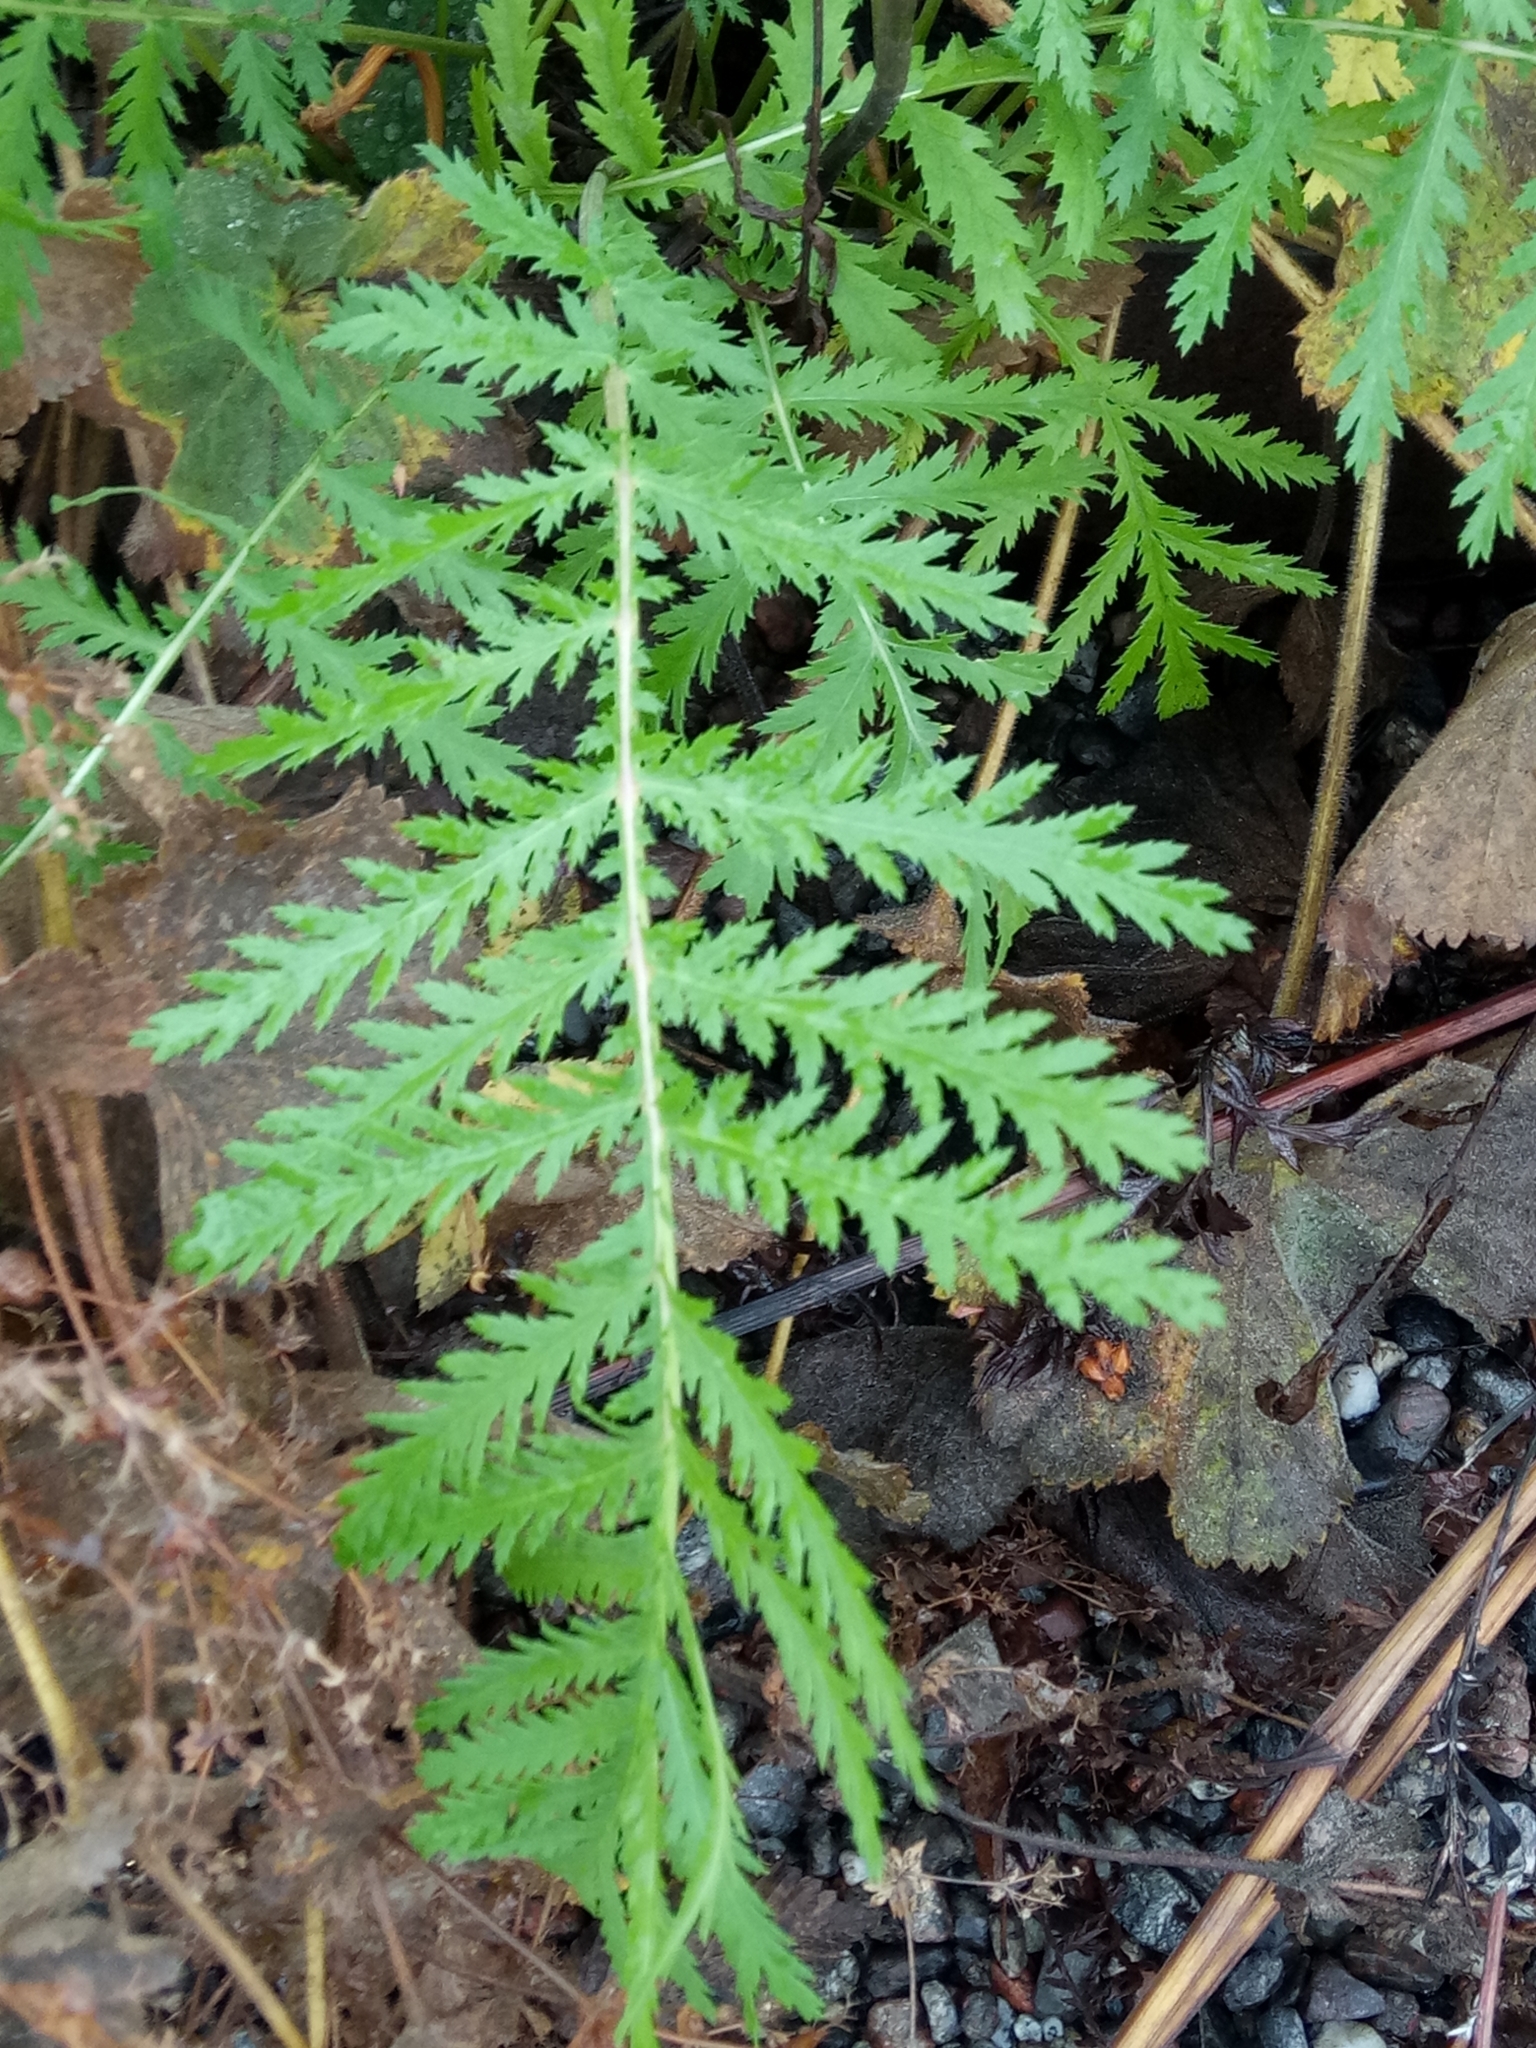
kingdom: Plantae
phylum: Tracheophyta
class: Magnoliopsida
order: Asterales
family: Asteraceae
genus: Tanacetum
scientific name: Tanacetum vulgare
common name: Common tansy
